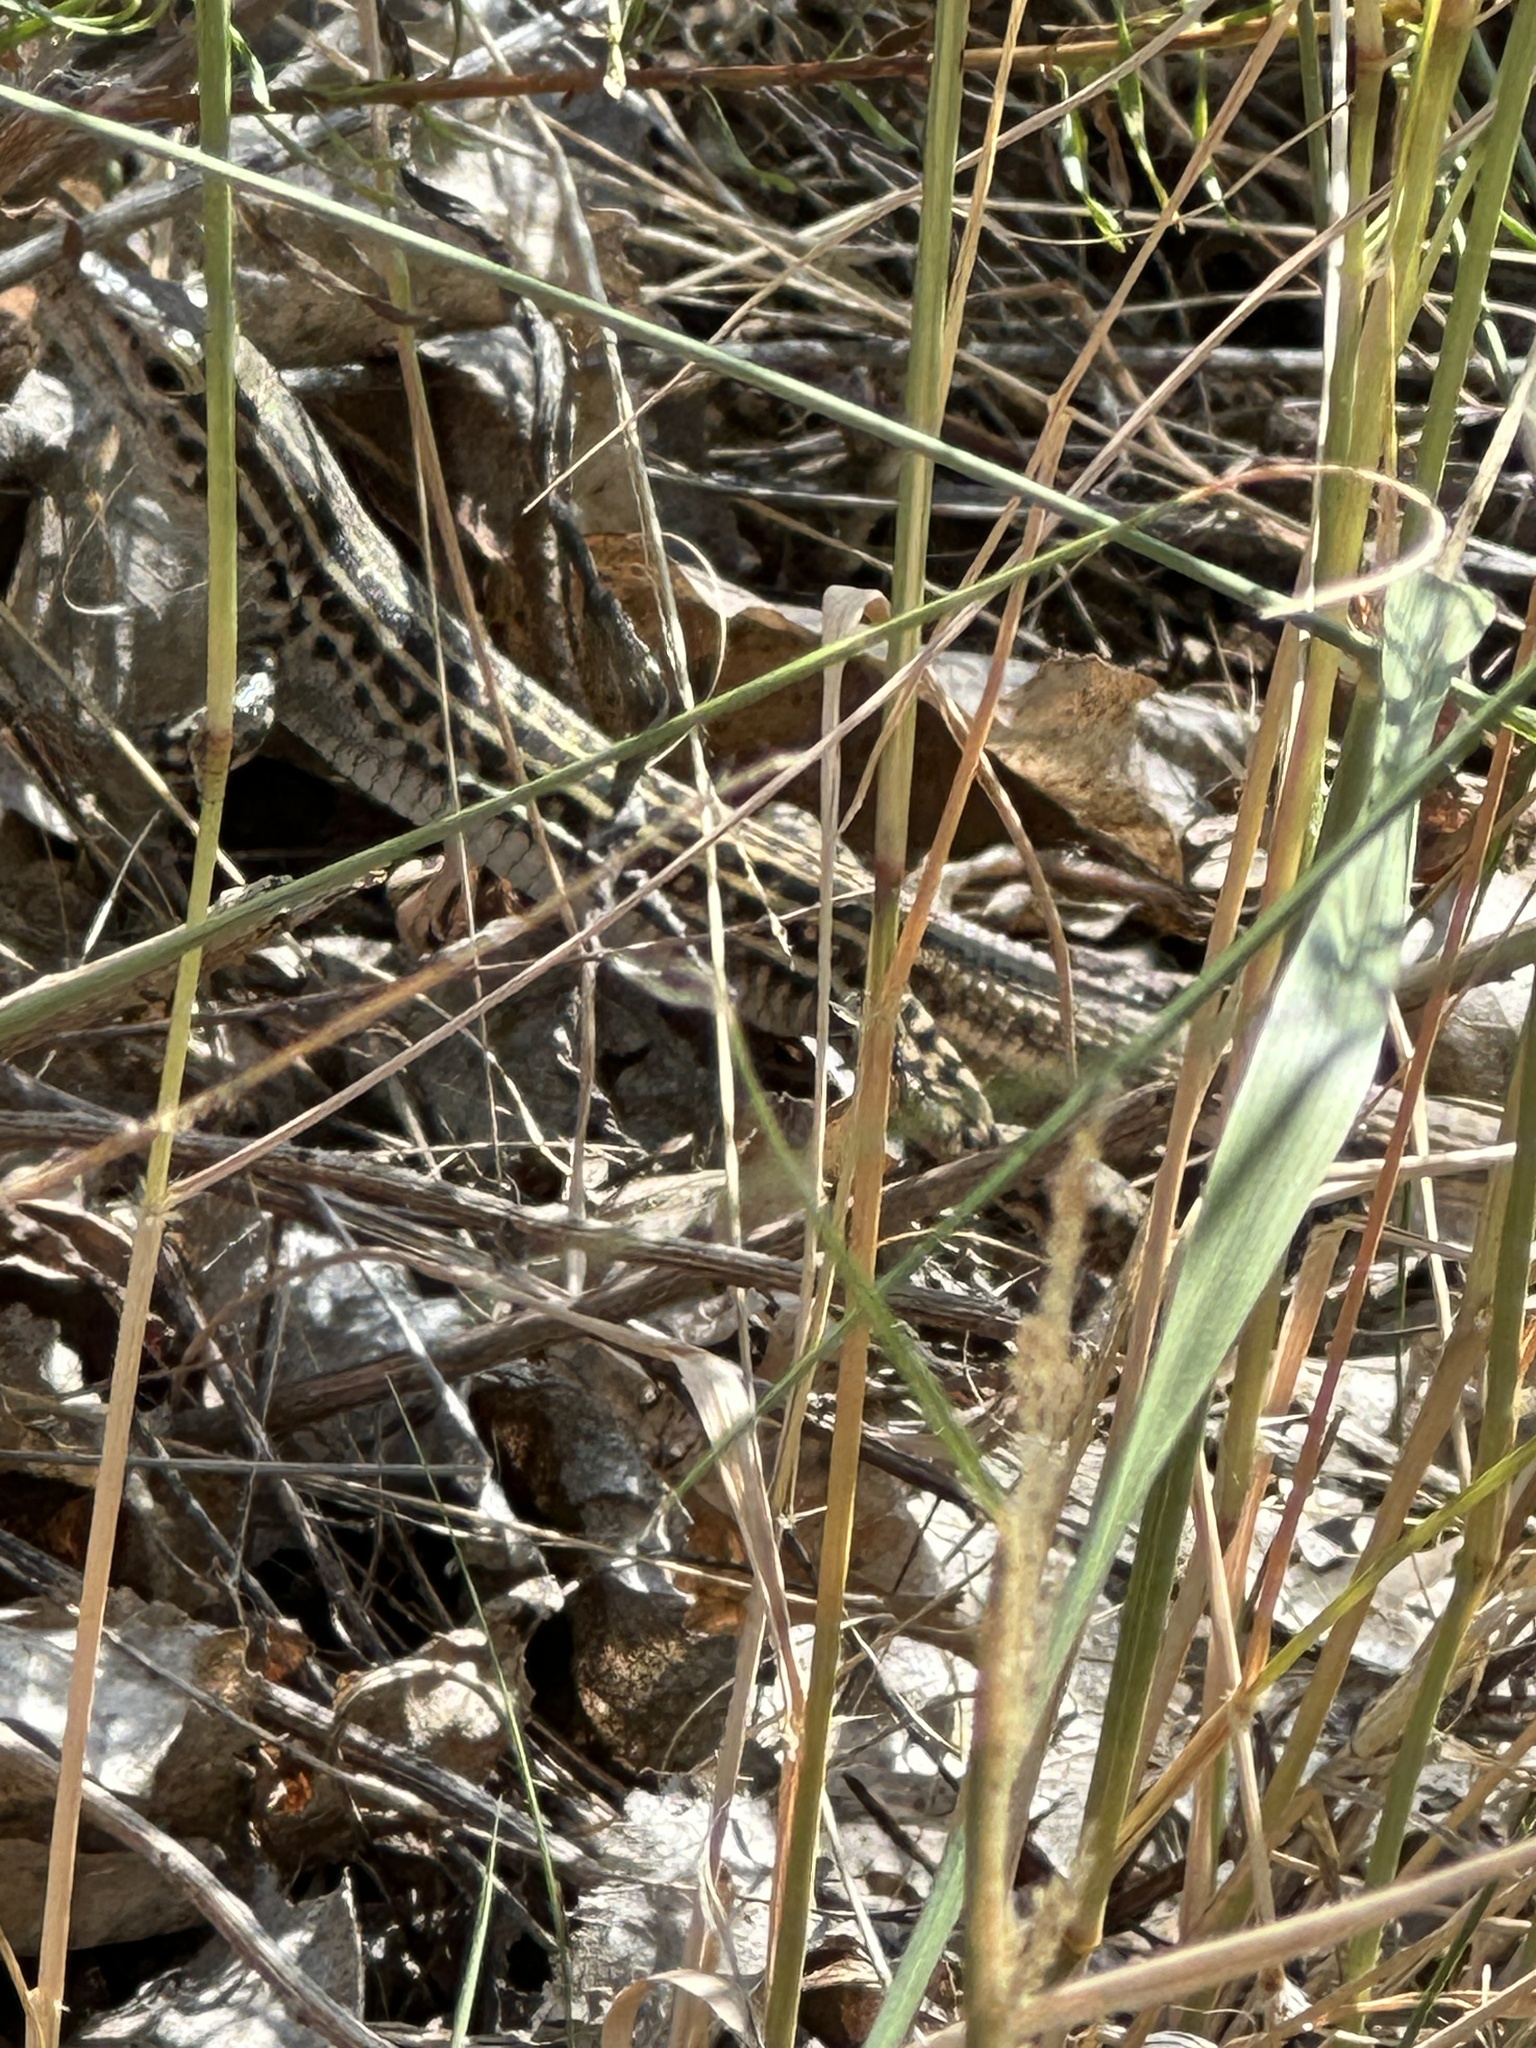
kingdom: Animalia
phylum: Chordata
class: Squamata
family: Teiidae
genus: Aspidoscelis
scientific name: Aspidoscelis neotesselatus
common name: Colorado checkered whiptail
